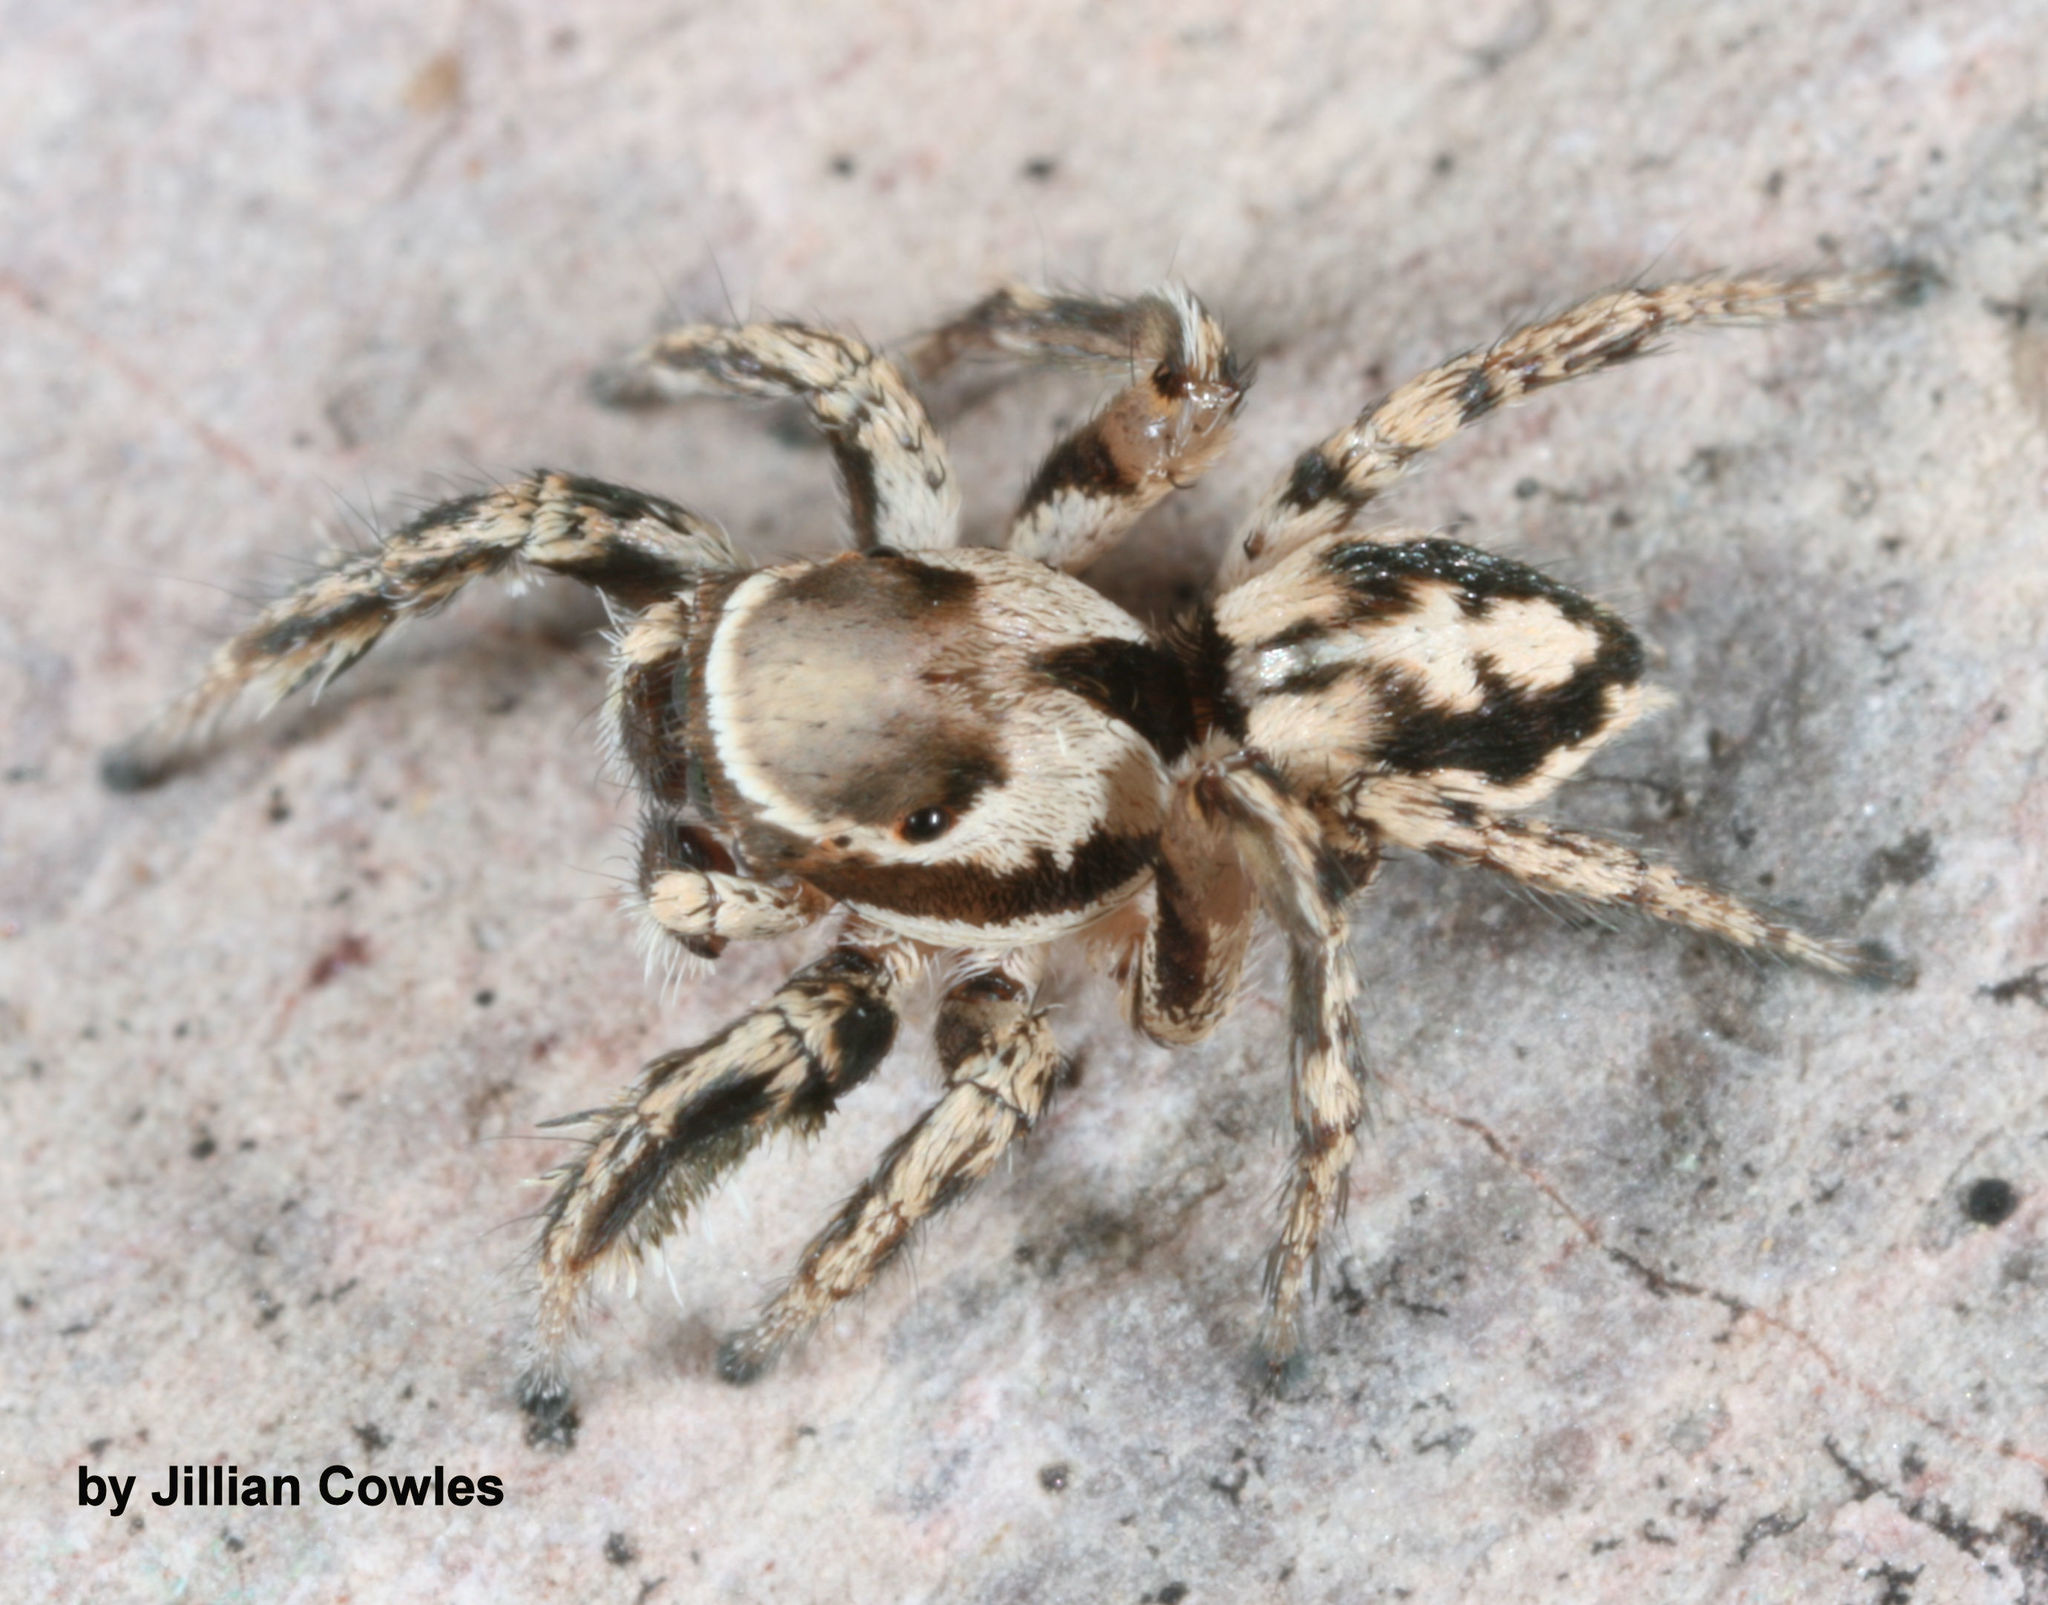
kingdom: Animalia
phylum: Arthropoda
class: Arachnida
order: Araneae
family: Salticidae
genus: Habronattus
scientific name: Habronattus clypeatus
